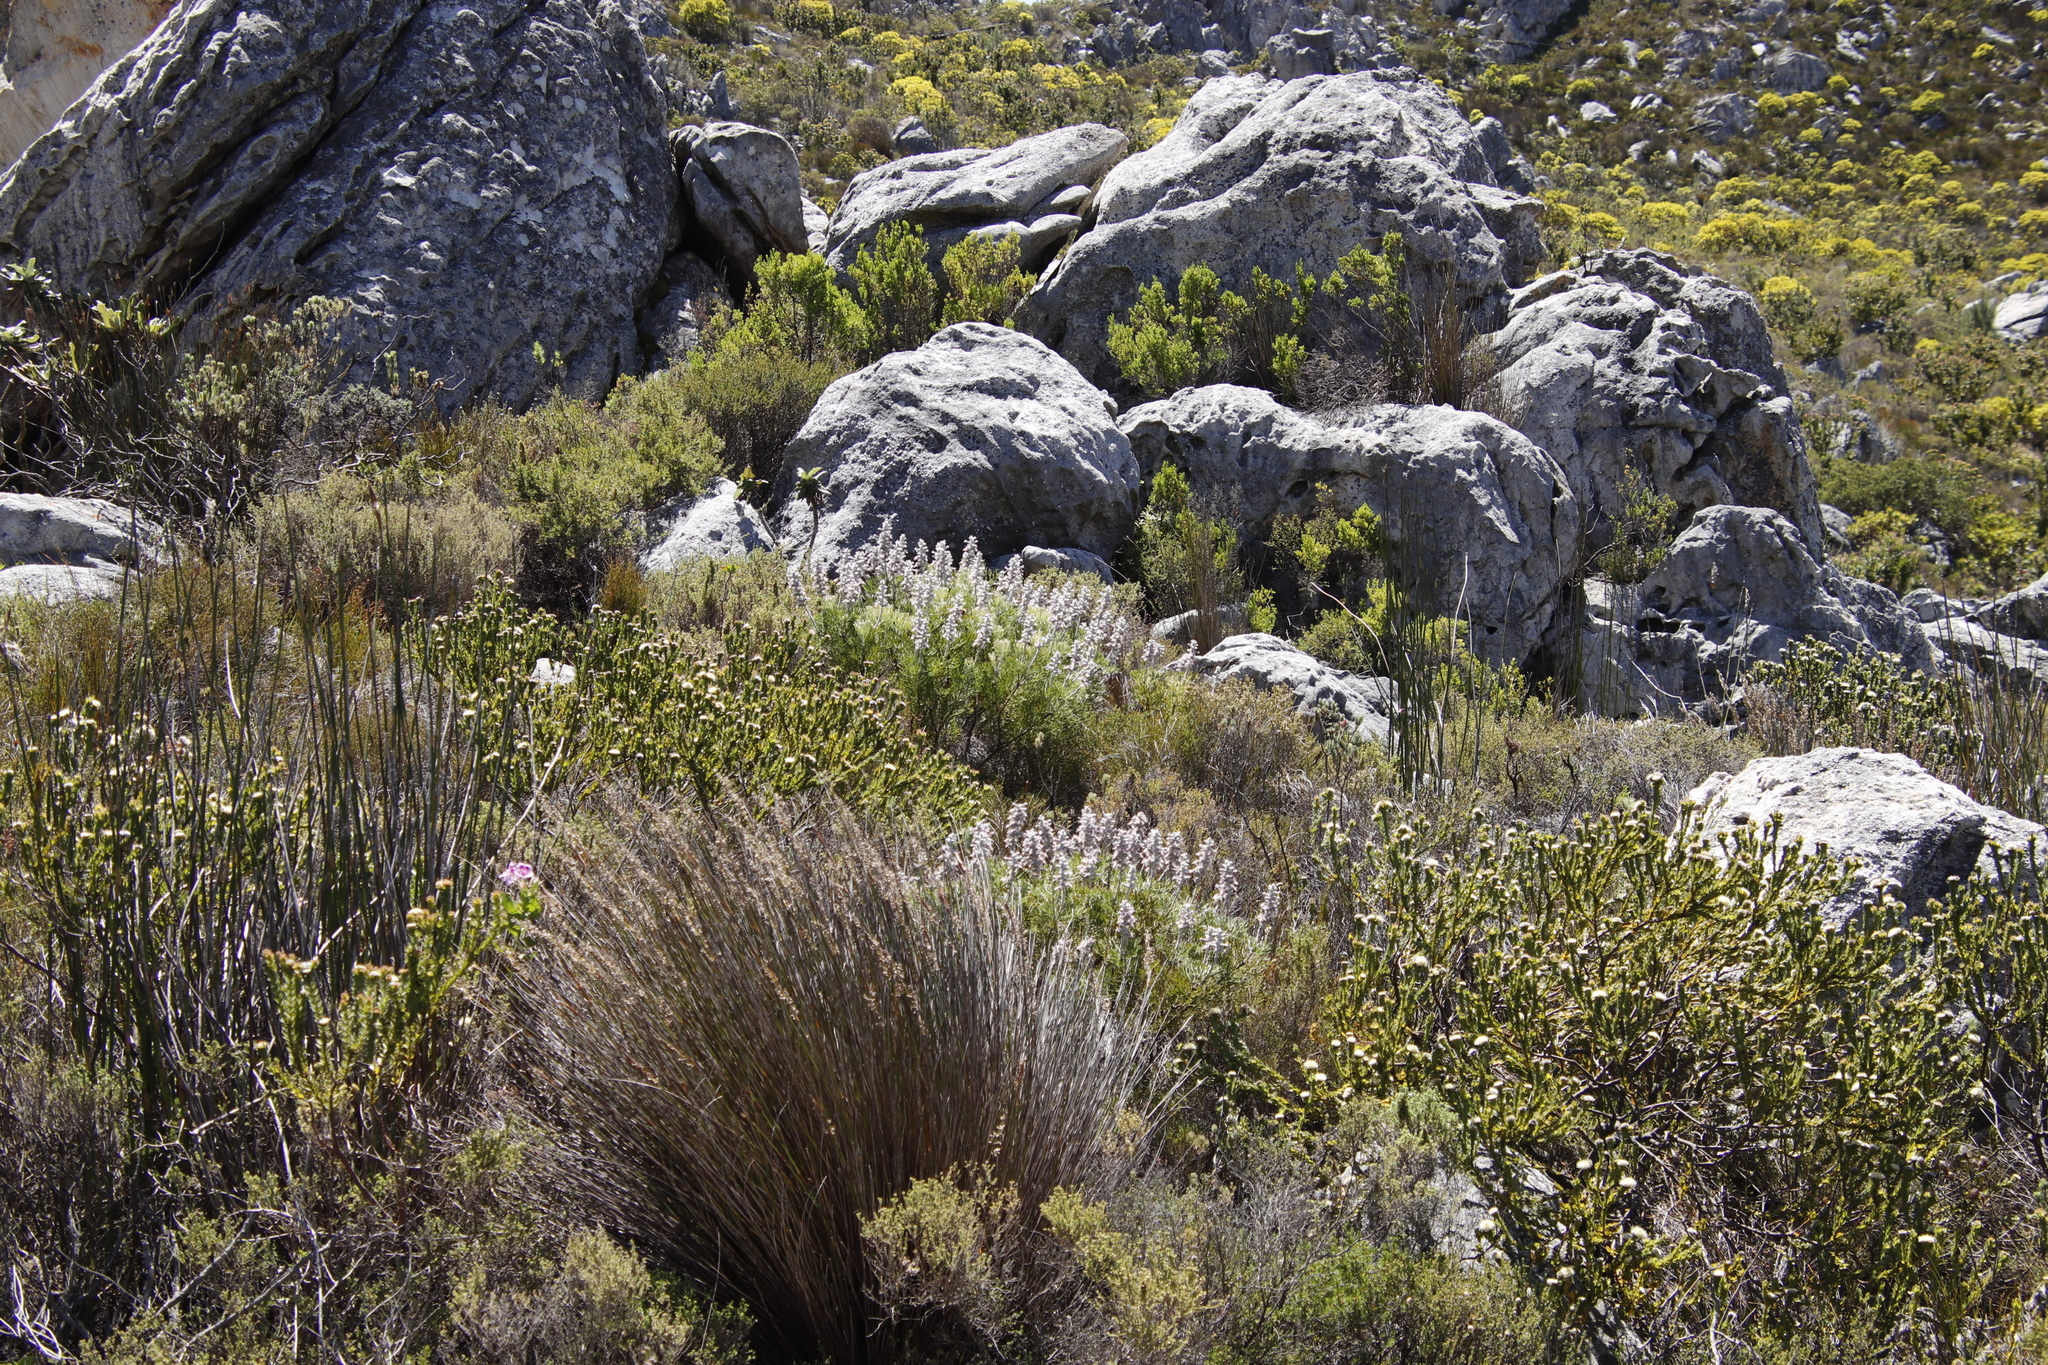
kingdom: Plantae
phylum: Tracheophyta
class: Magnoliopsida
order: Proteales
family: Proteaceae
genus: Paranomus
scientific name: Paranomus spicatus
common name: Kogelberg sceptre
